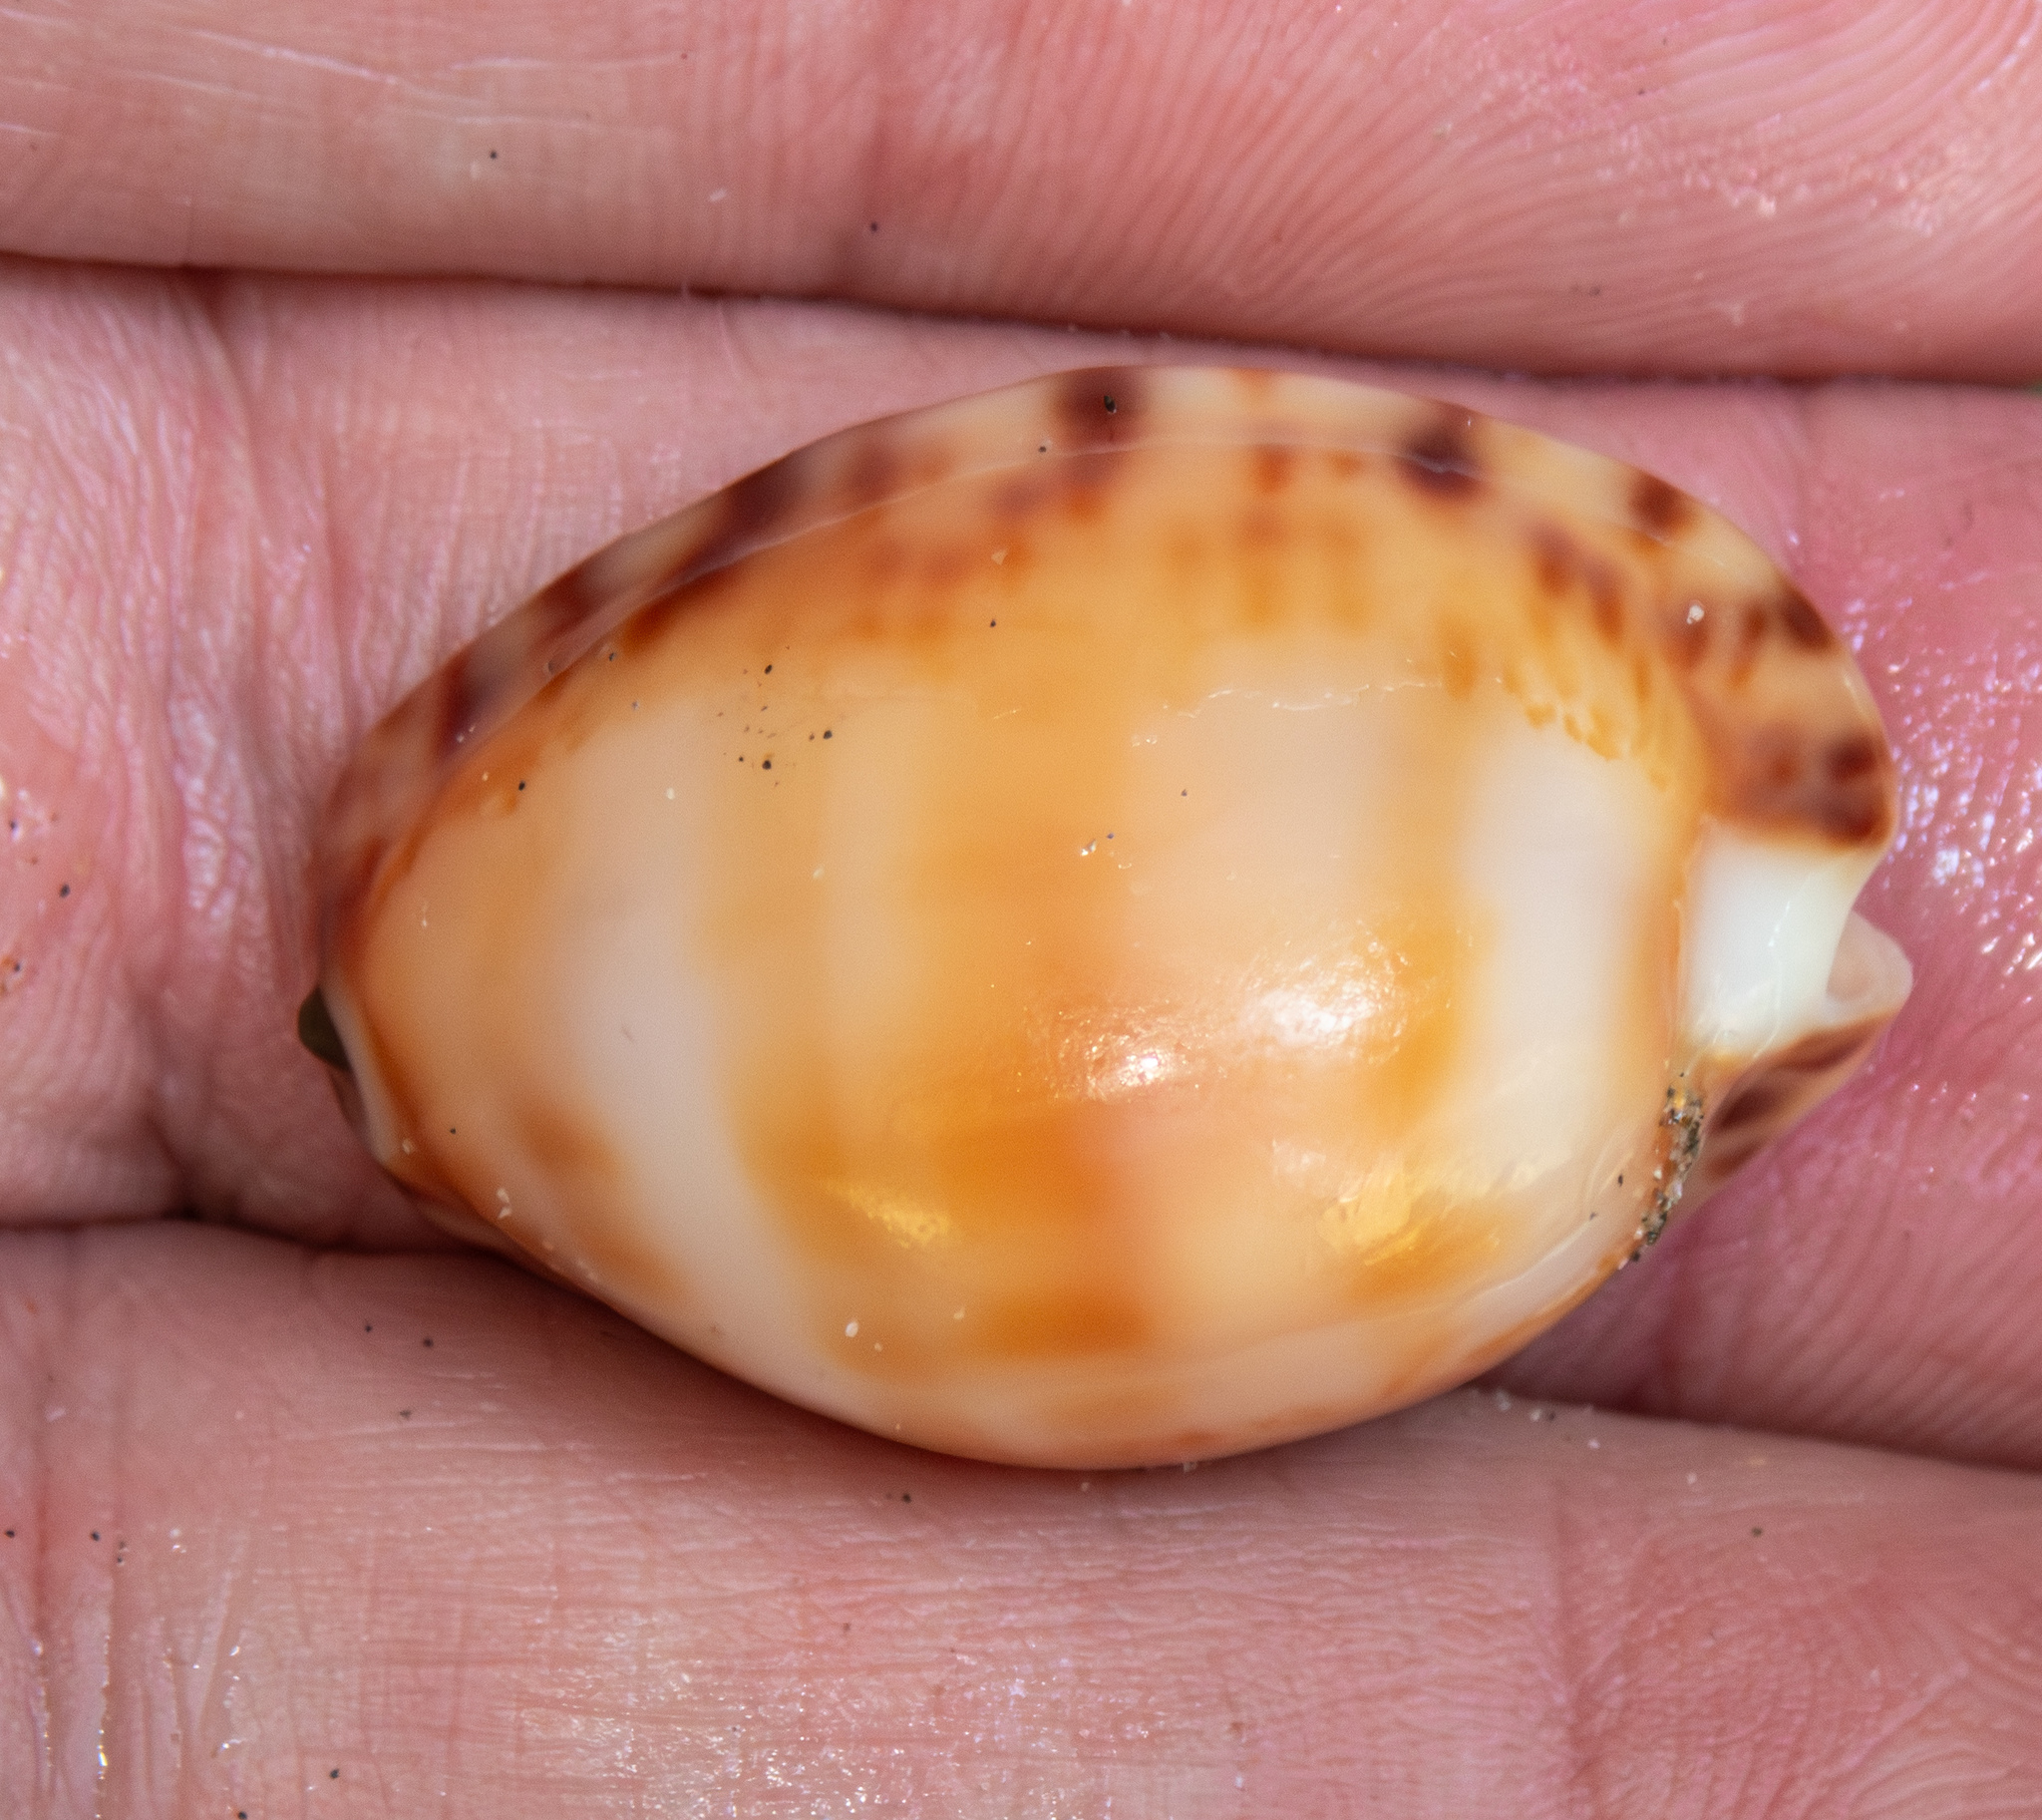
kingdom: Animalia
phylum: Mollusca
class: Gastropoda
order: Littorinimorpha
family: Cypraeidae
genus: Pseudozonaria
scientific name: Pseudozonaria arabicula
